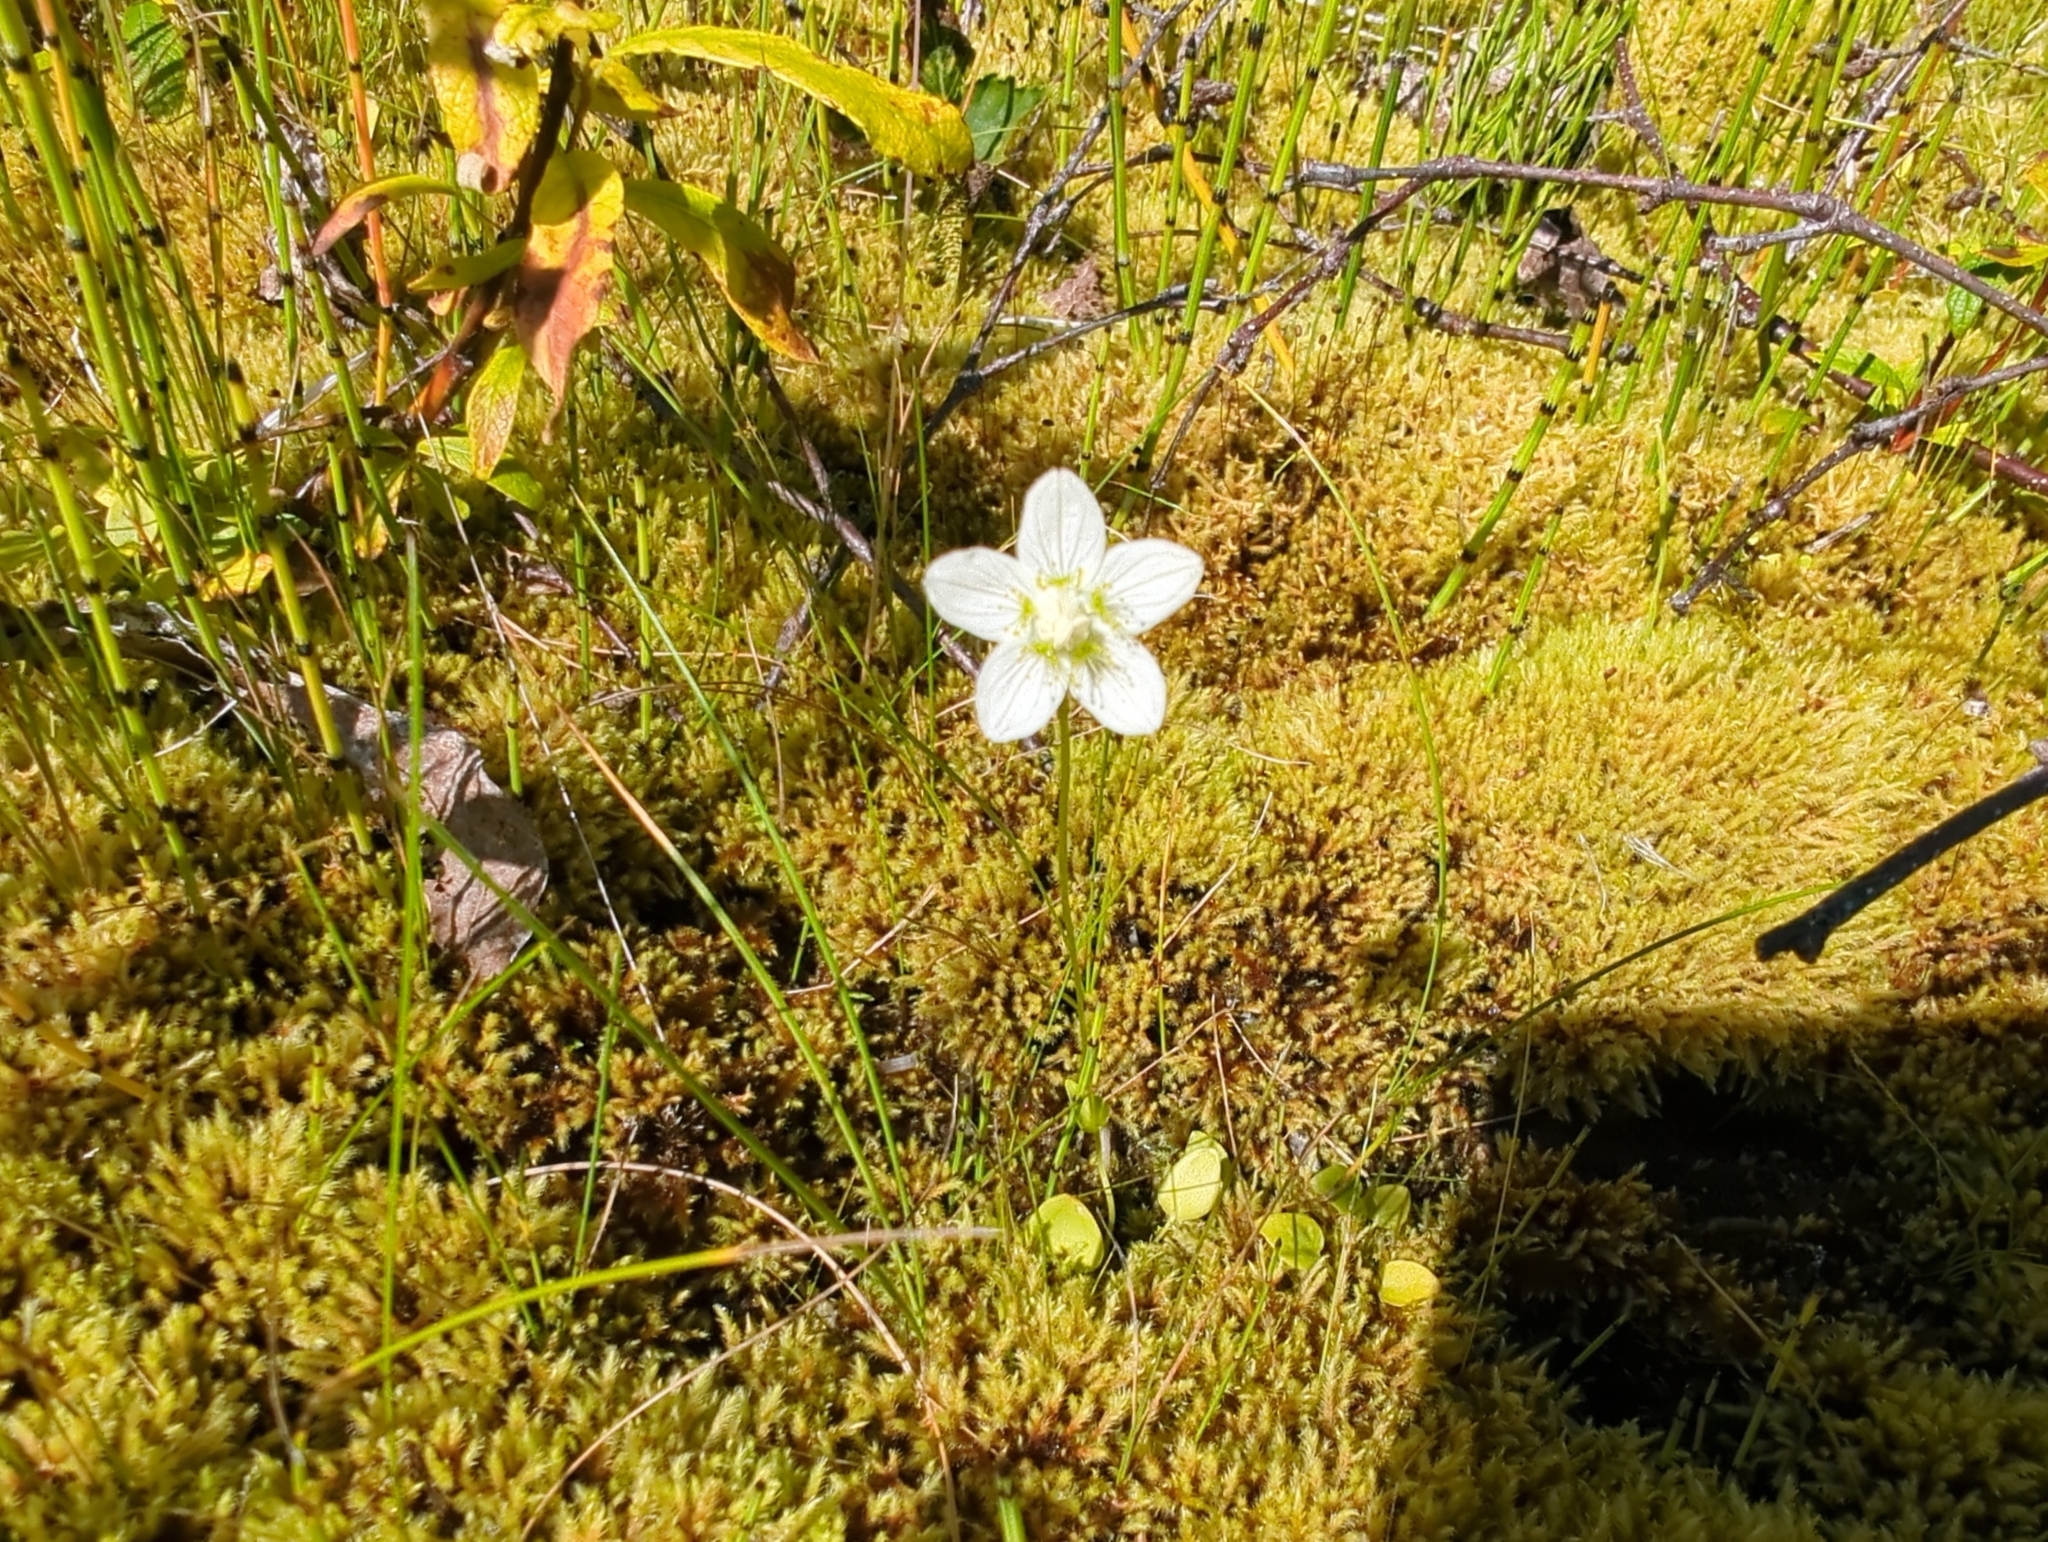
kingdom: Plantae
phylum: Tracheophyta
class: Magnoliopsida
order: Celastrales
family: Parnassiaceae
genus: Parnassia
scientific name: Parnassia palustris
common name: Grass-of-parnassus
